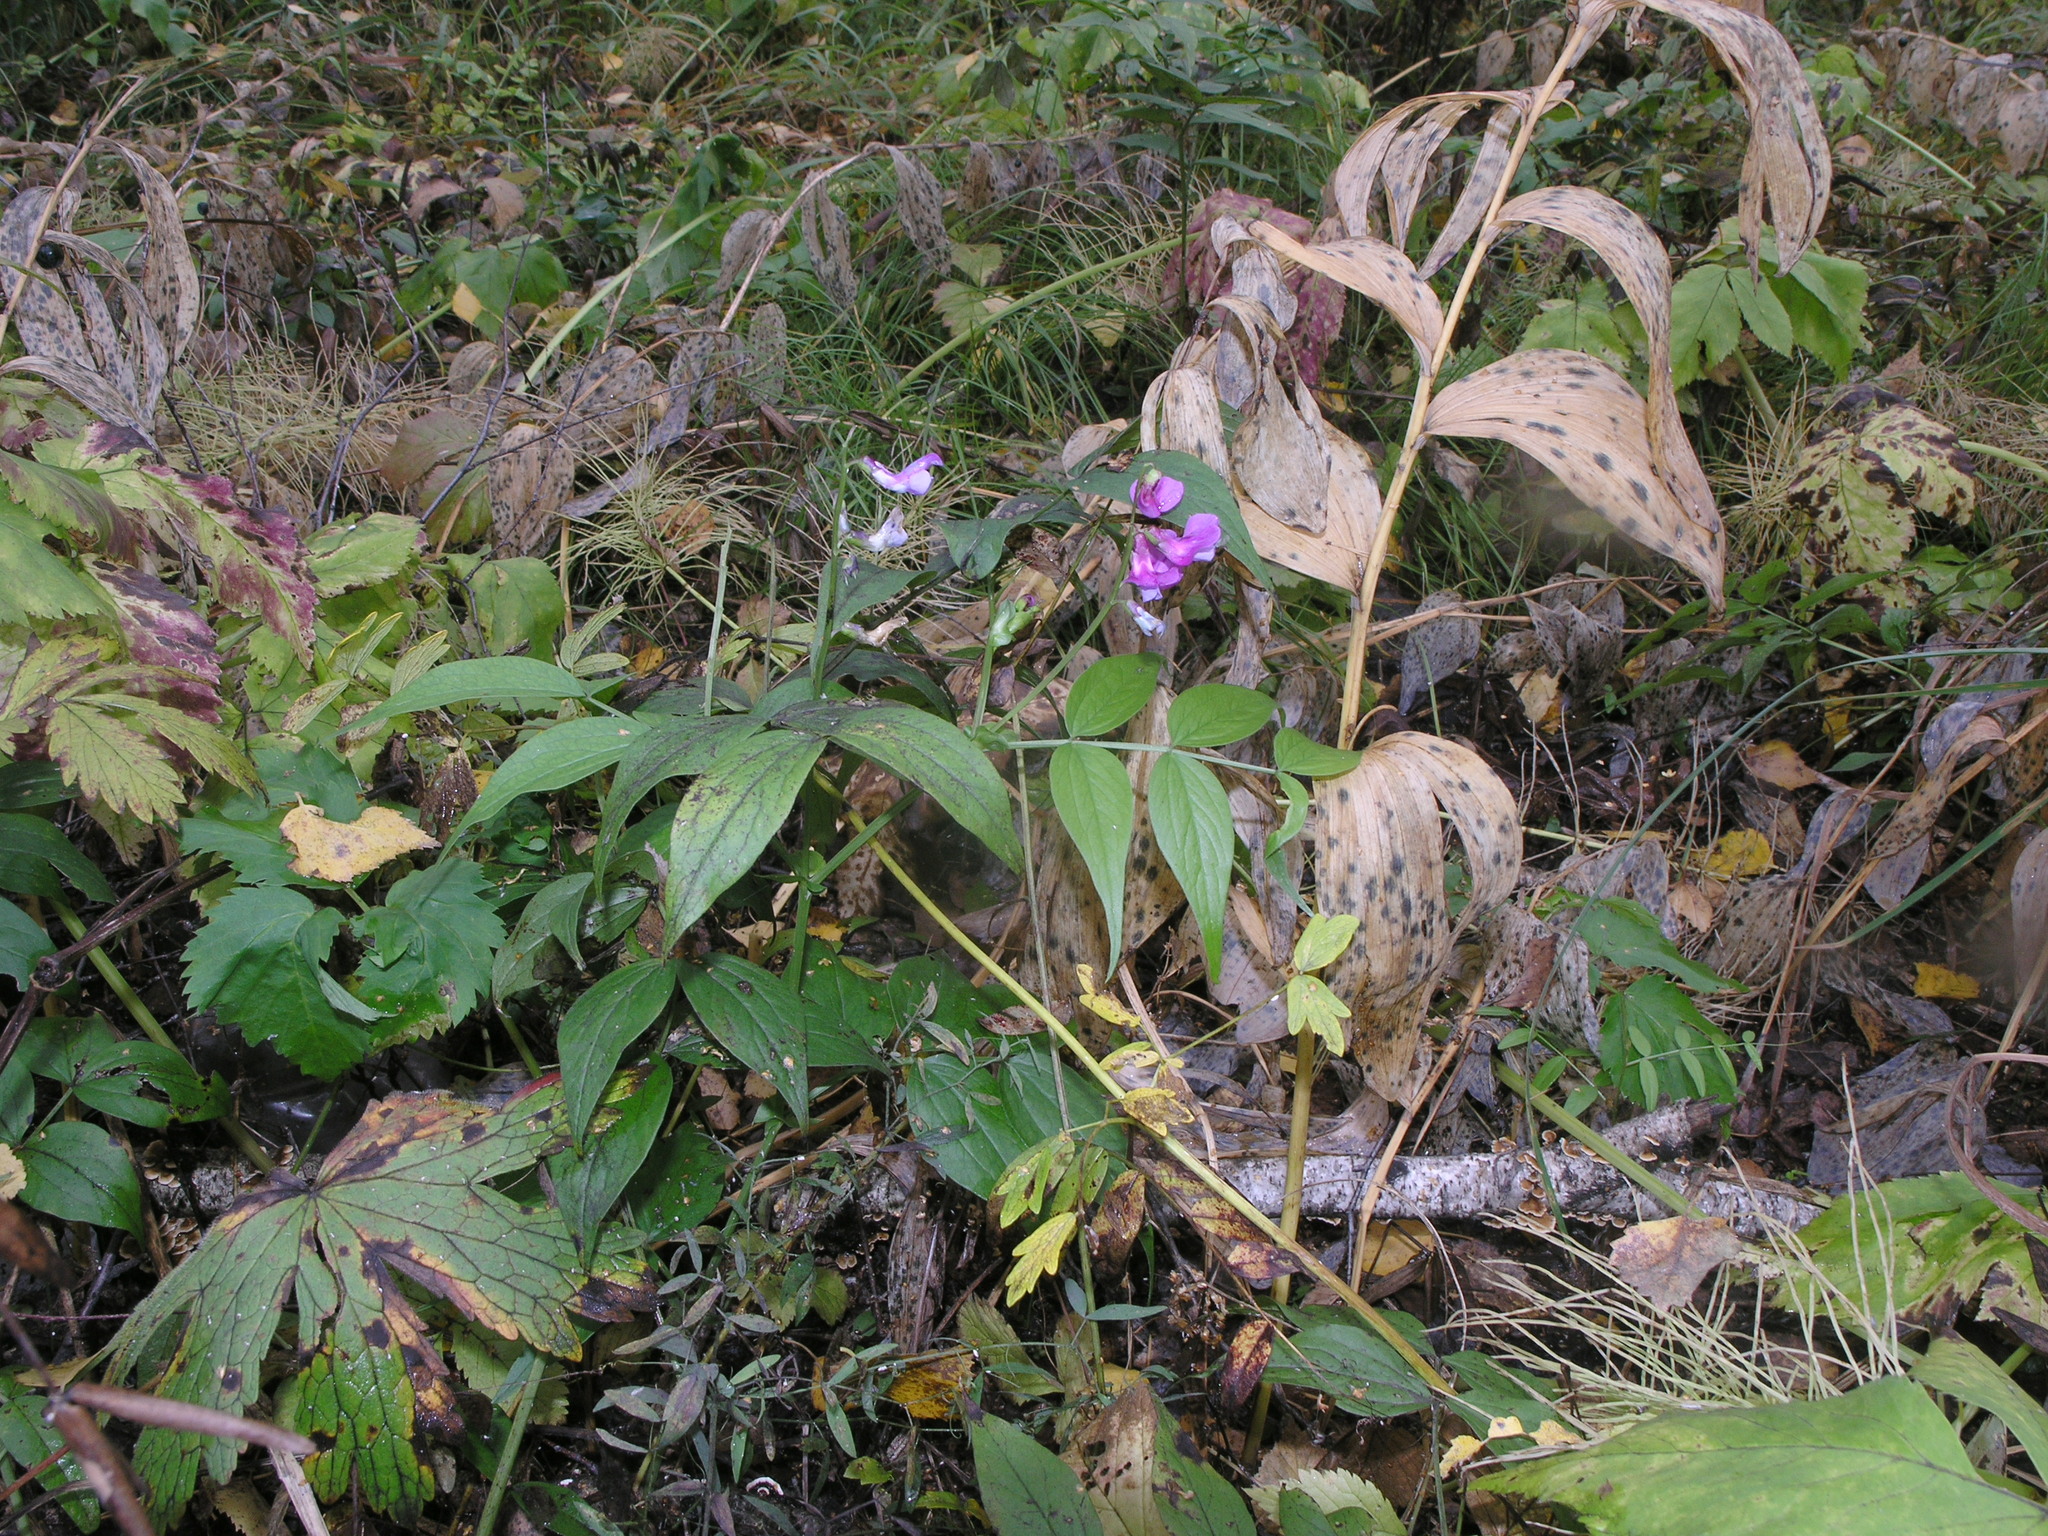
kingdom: Plantae
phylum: Tracheophyta
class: Magnoliopsida
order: Fabales
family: Fabaceae
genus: Lathyrus
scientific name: Lathyrus vernus
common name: Spring pea
